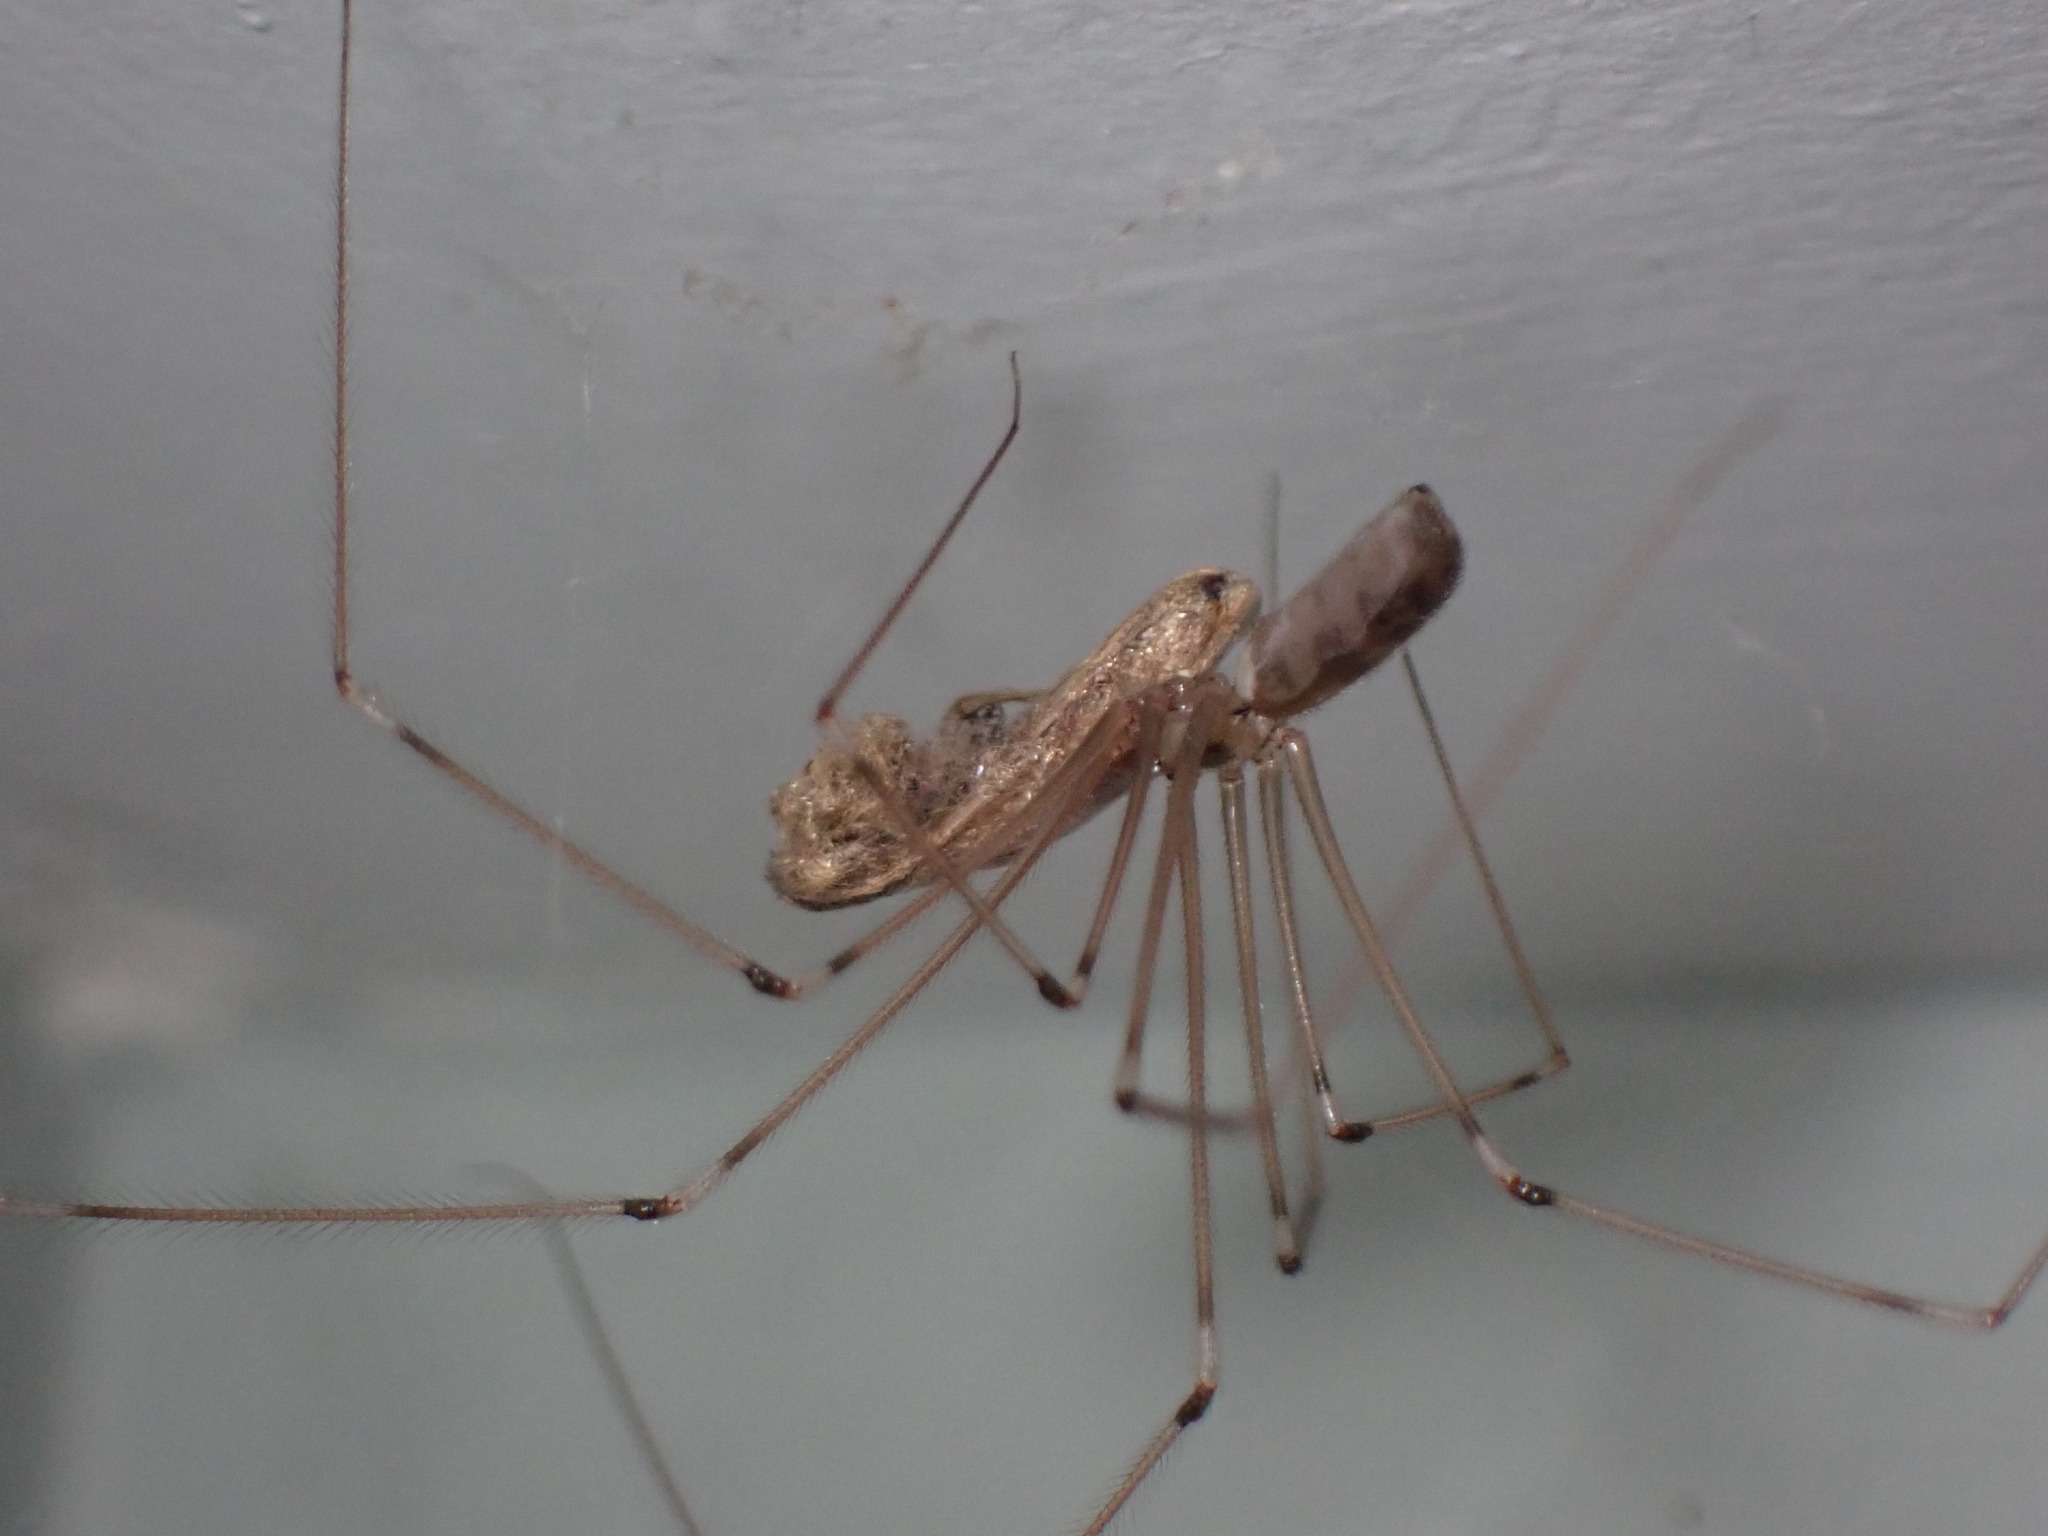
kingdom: Animalia
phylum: Arthropoda
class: Arachnida
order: Araneae
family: Pholcidae
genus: Pholcus
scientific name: Pholcus phalangioides
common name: Longbodied cellar spider
